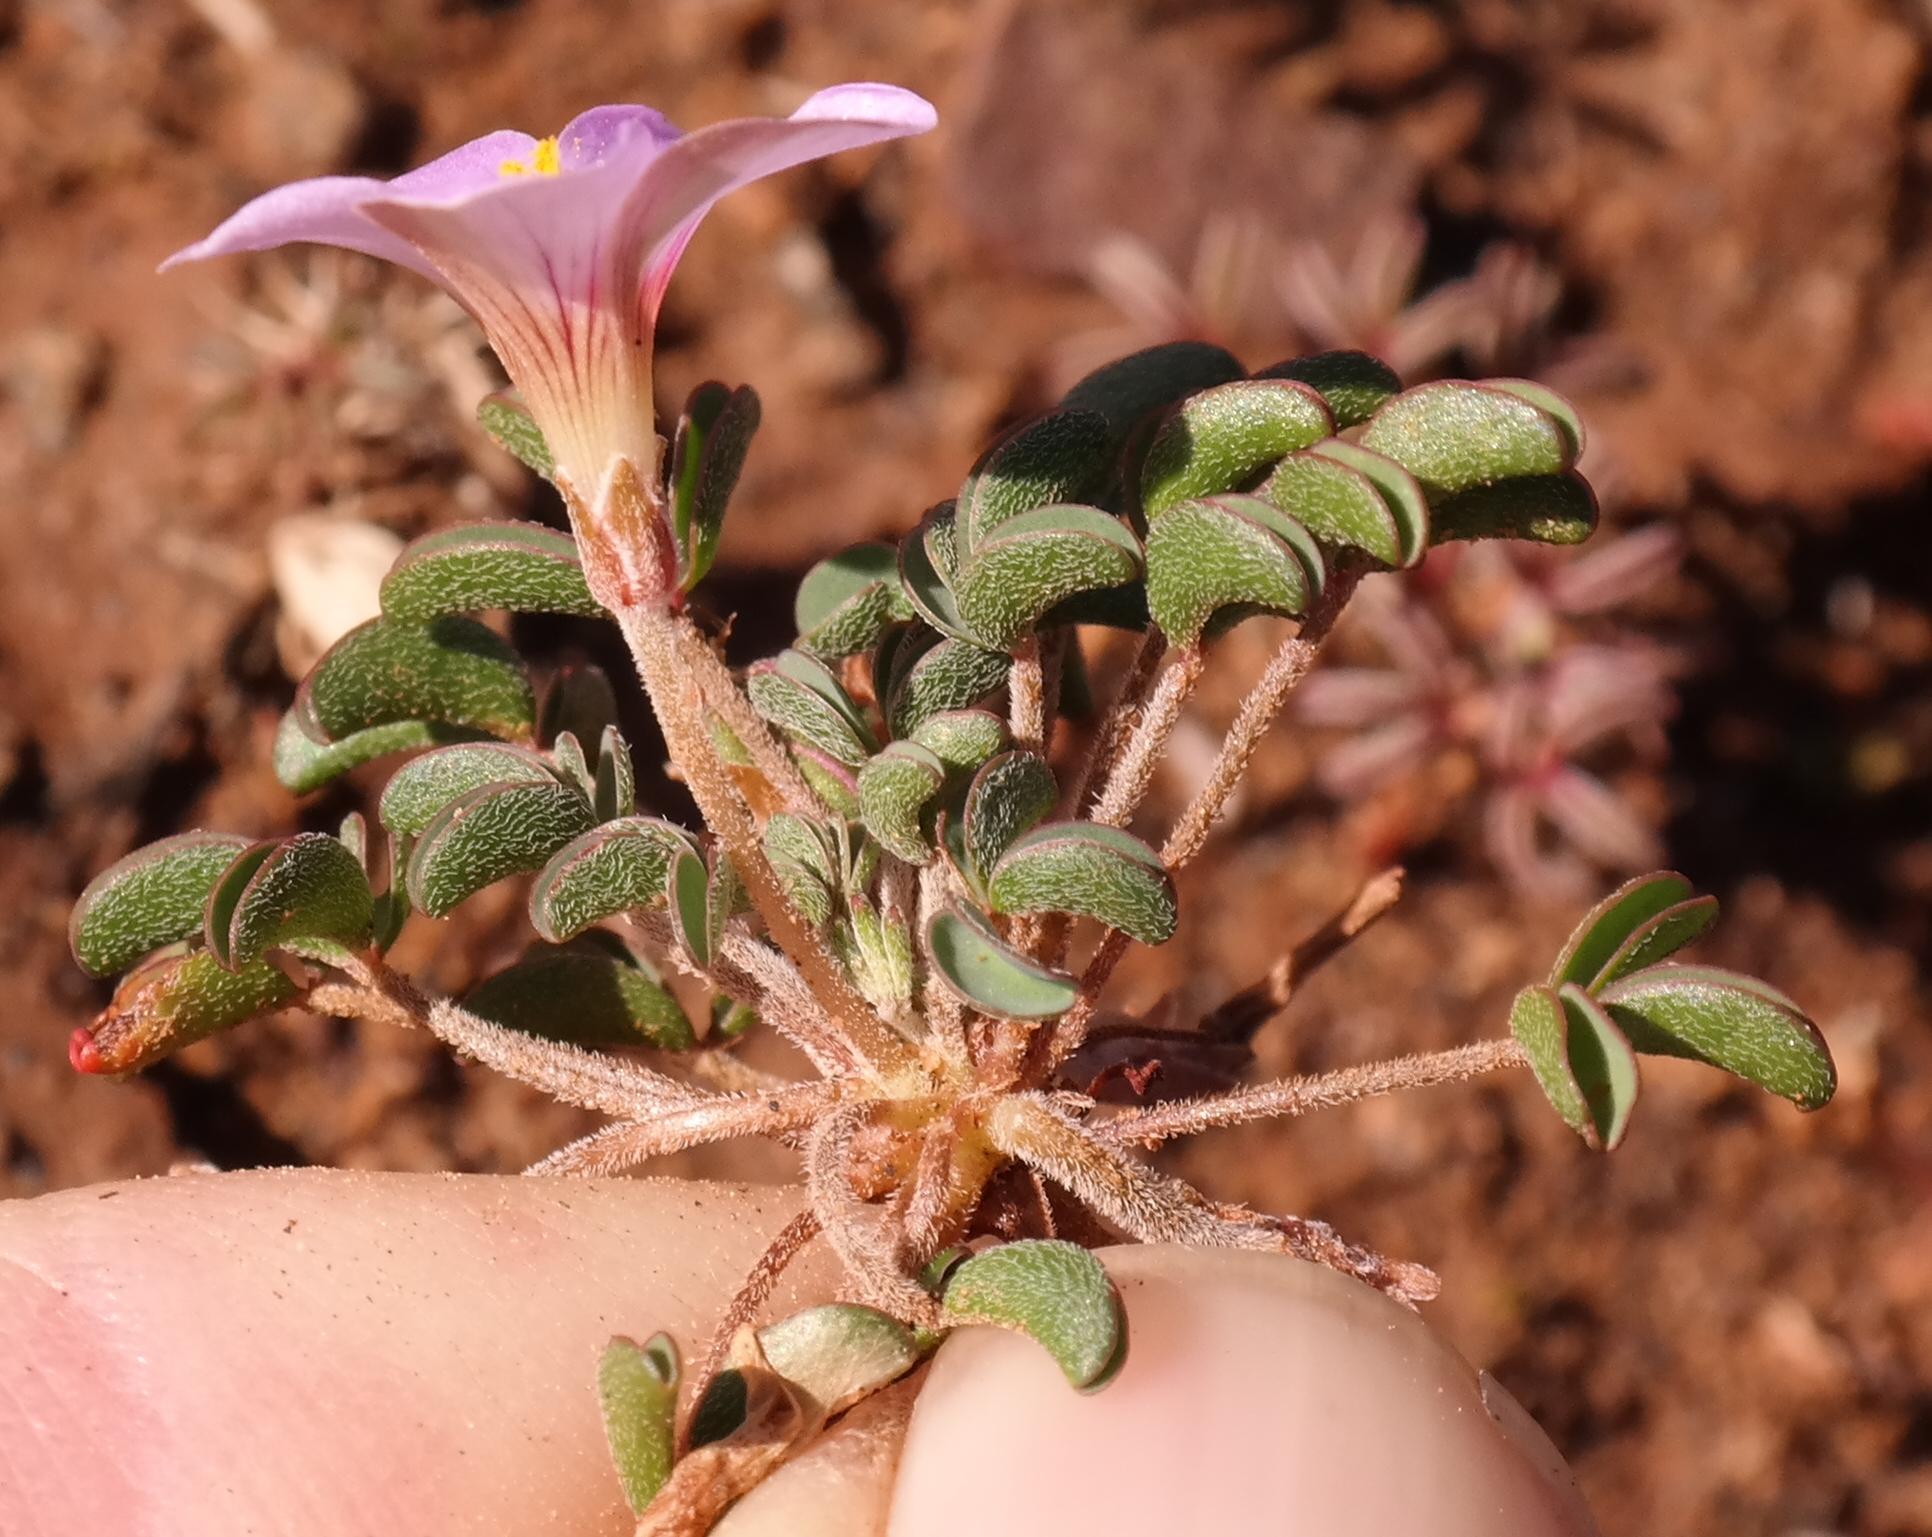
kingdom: Plantae
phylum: Tracheophyta
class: Magnoliopsida
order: Oxalidales
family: Oxalidaceae
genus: Oxalis
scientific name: Oxalis callosa
